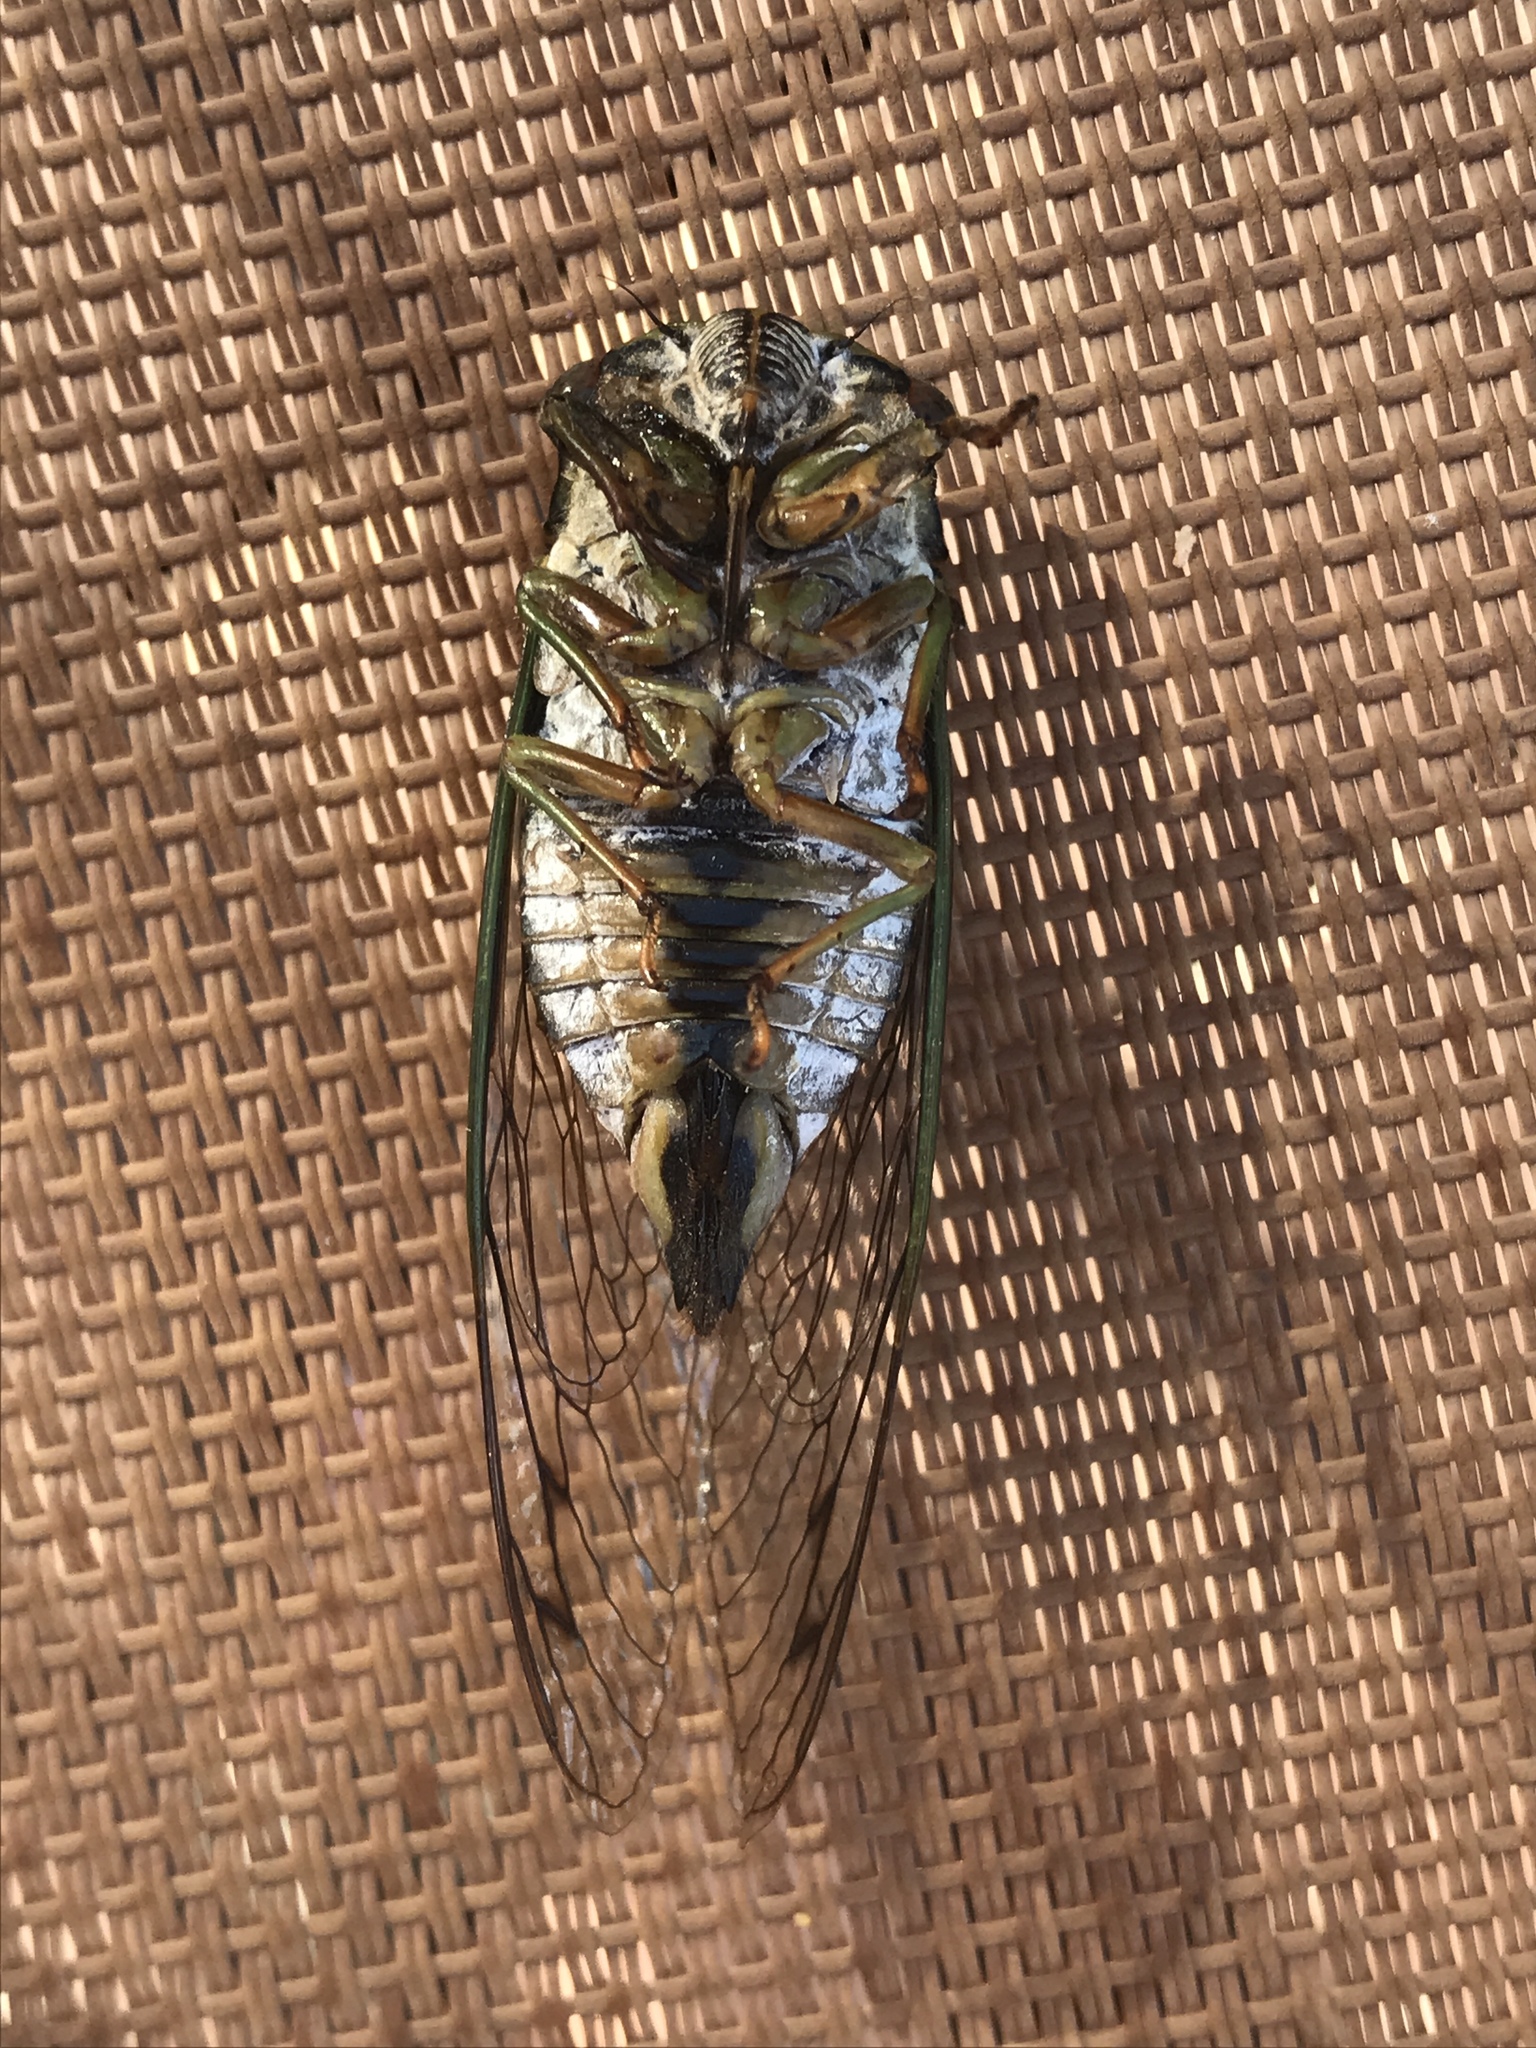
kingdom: Animalia
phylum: Arthropoda
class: Insecta
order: Hemiptera
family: Cicadidae
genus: Neotibicen
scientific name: Neotibicen pruinosus
